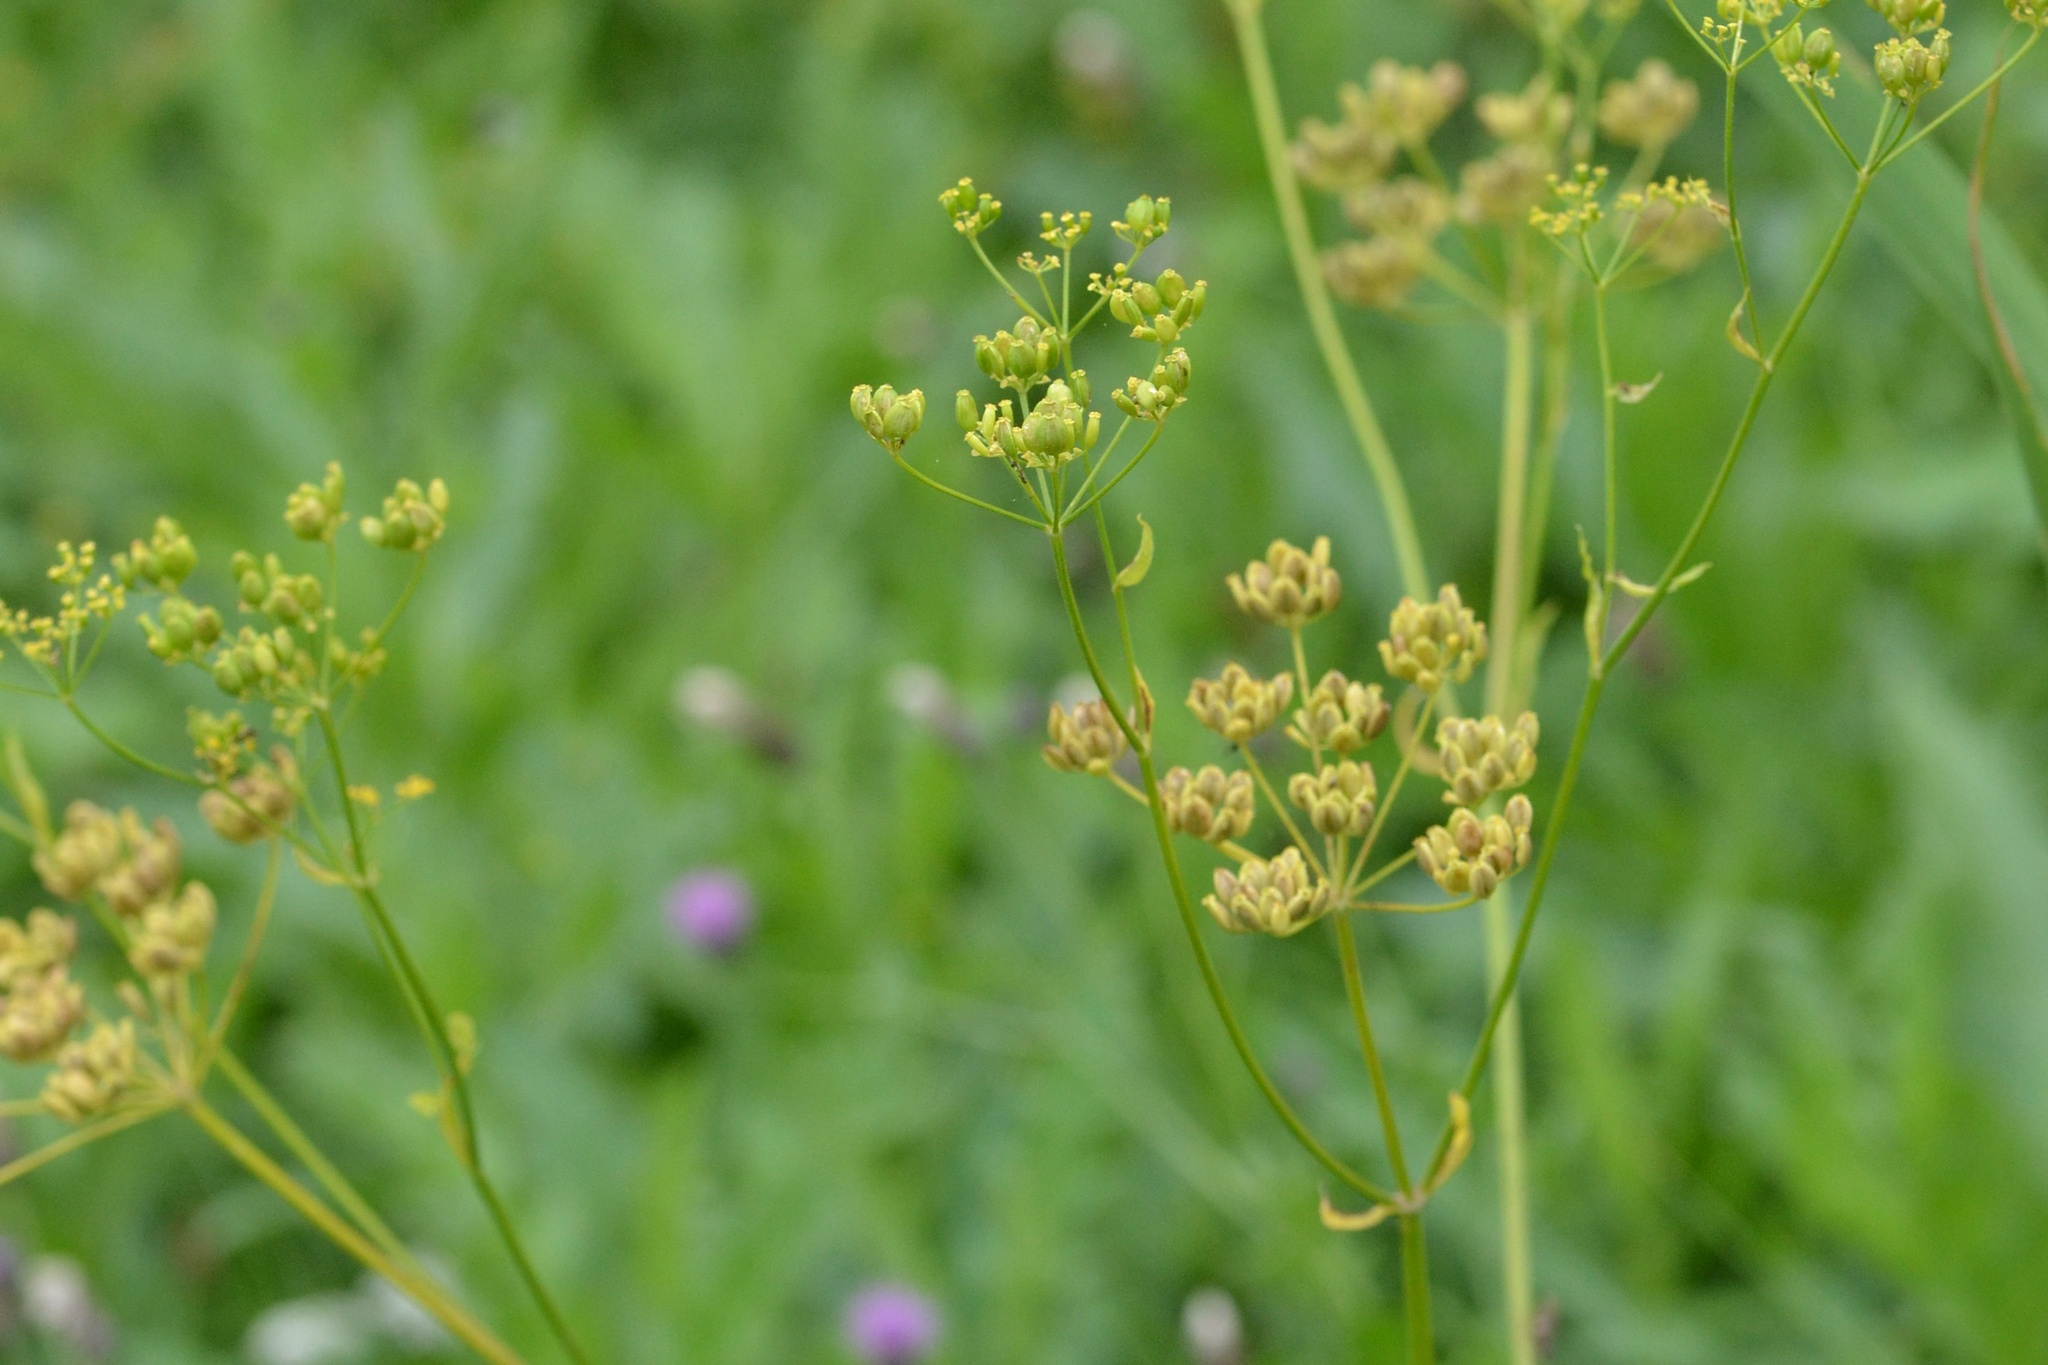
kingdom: Plantae
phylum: Tracheophyta
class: Magnoliopsida
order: Apiales
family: Apiaceae
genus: Pastinaca
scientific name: Pastinaca sativa
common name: Wild parsnip
